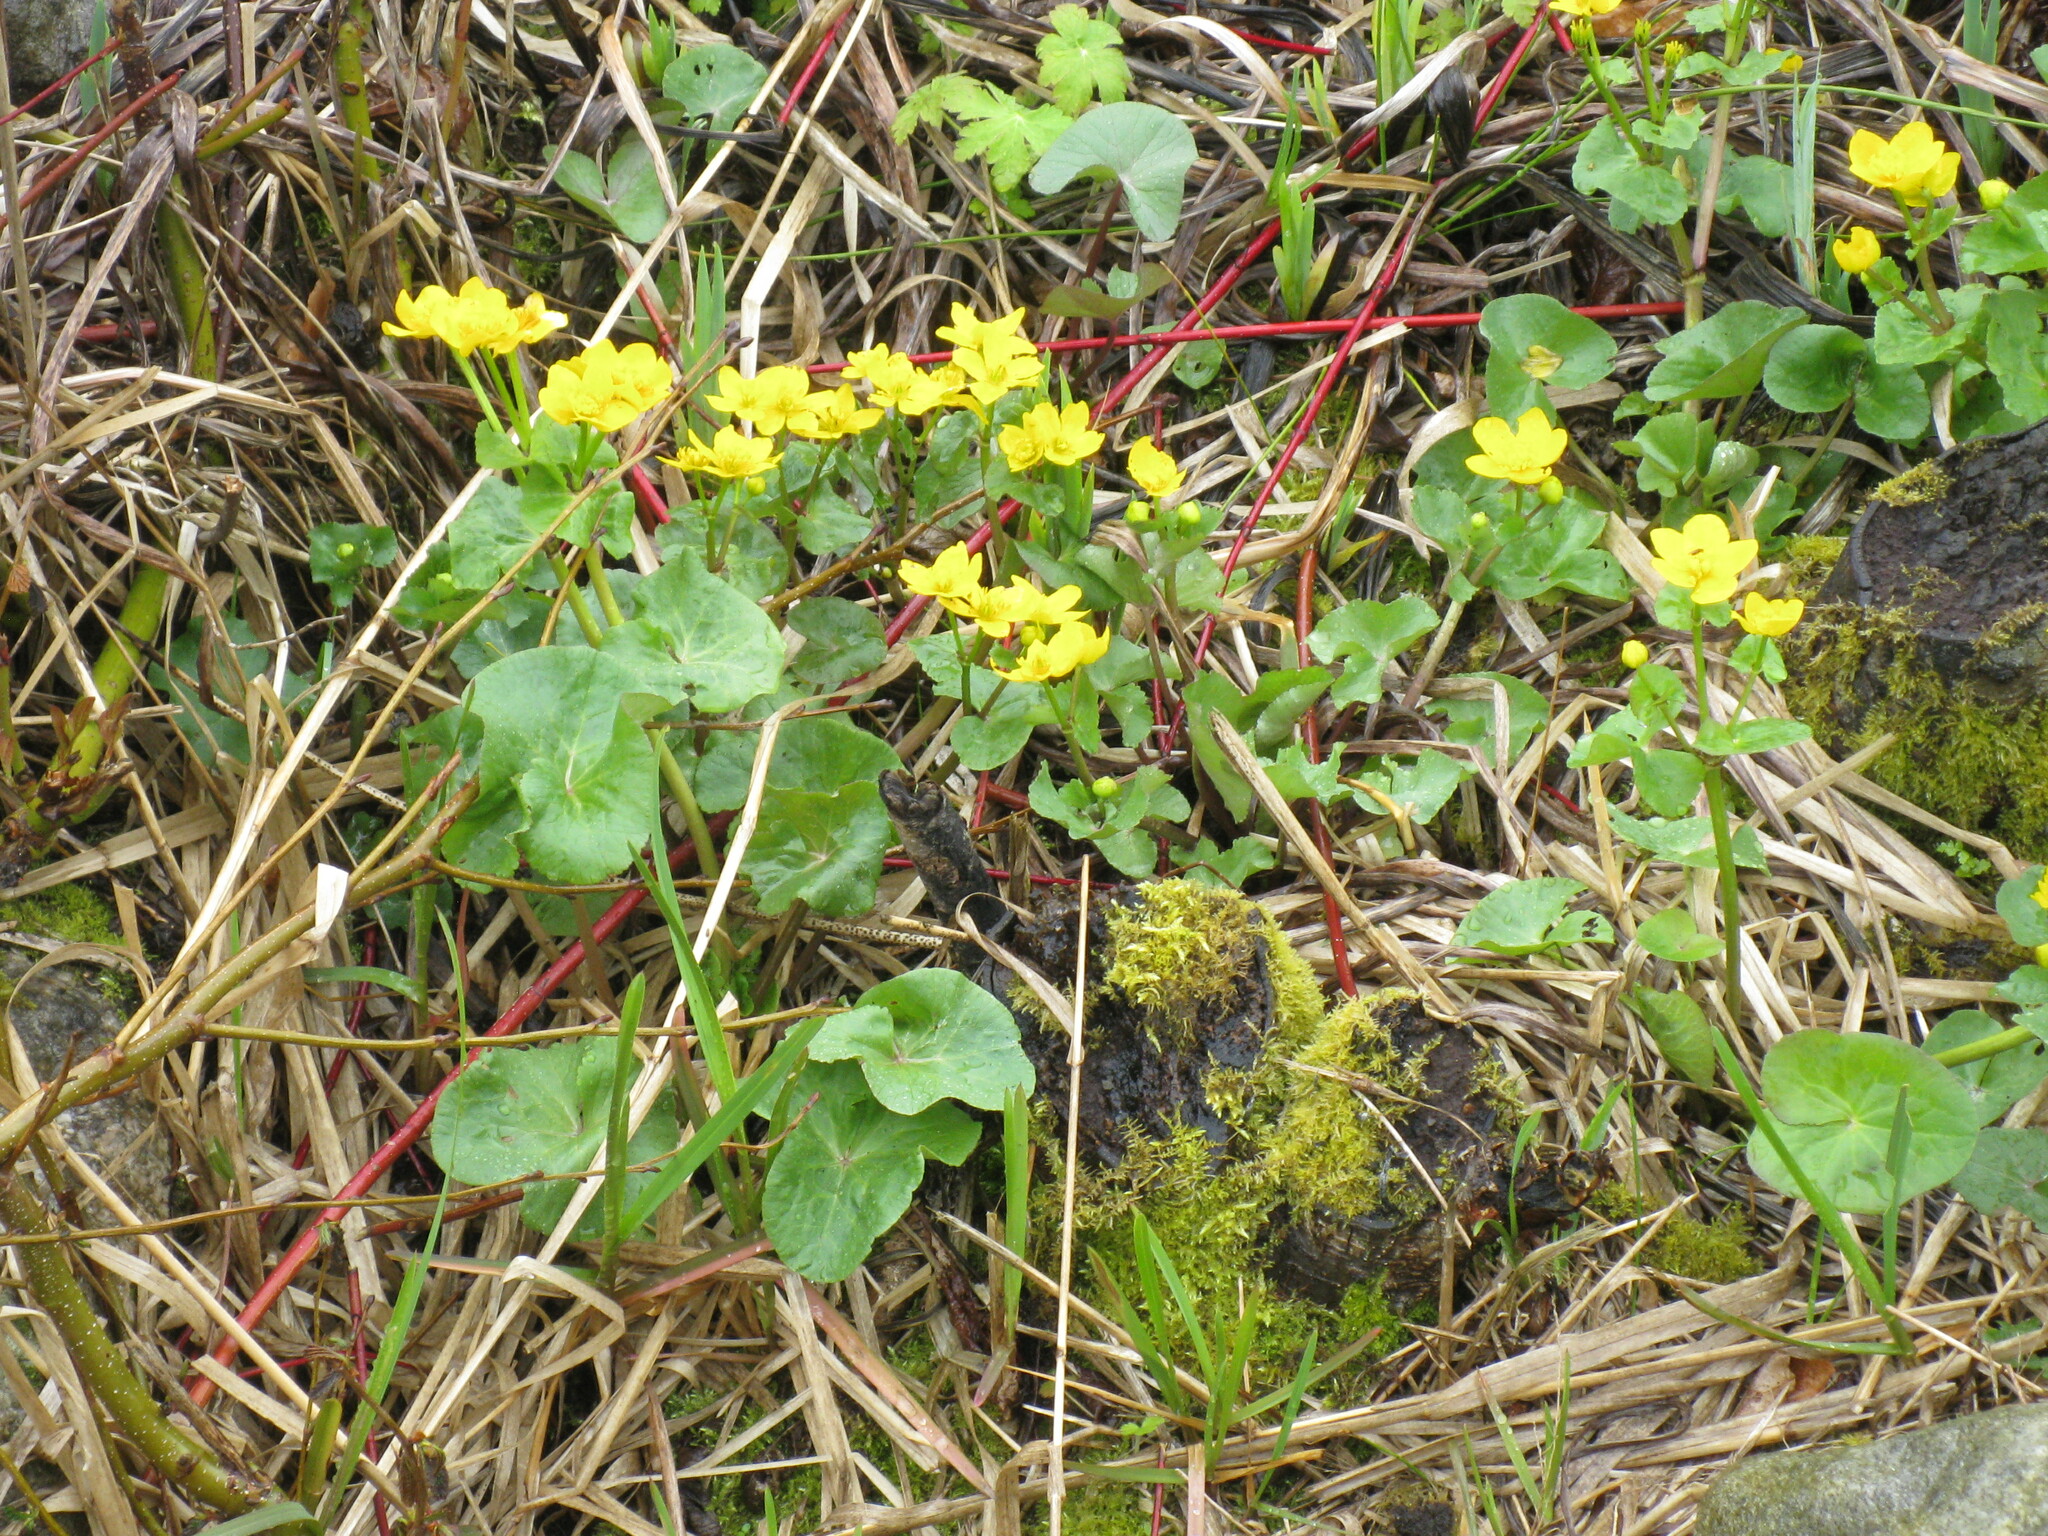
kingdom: Plantae
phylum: Tracheophyta
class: Magnoliopsida
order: Ranunculales
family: Ranunculaceae
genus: Caltha
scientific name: Caltha palustris
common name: Marsh marigold
